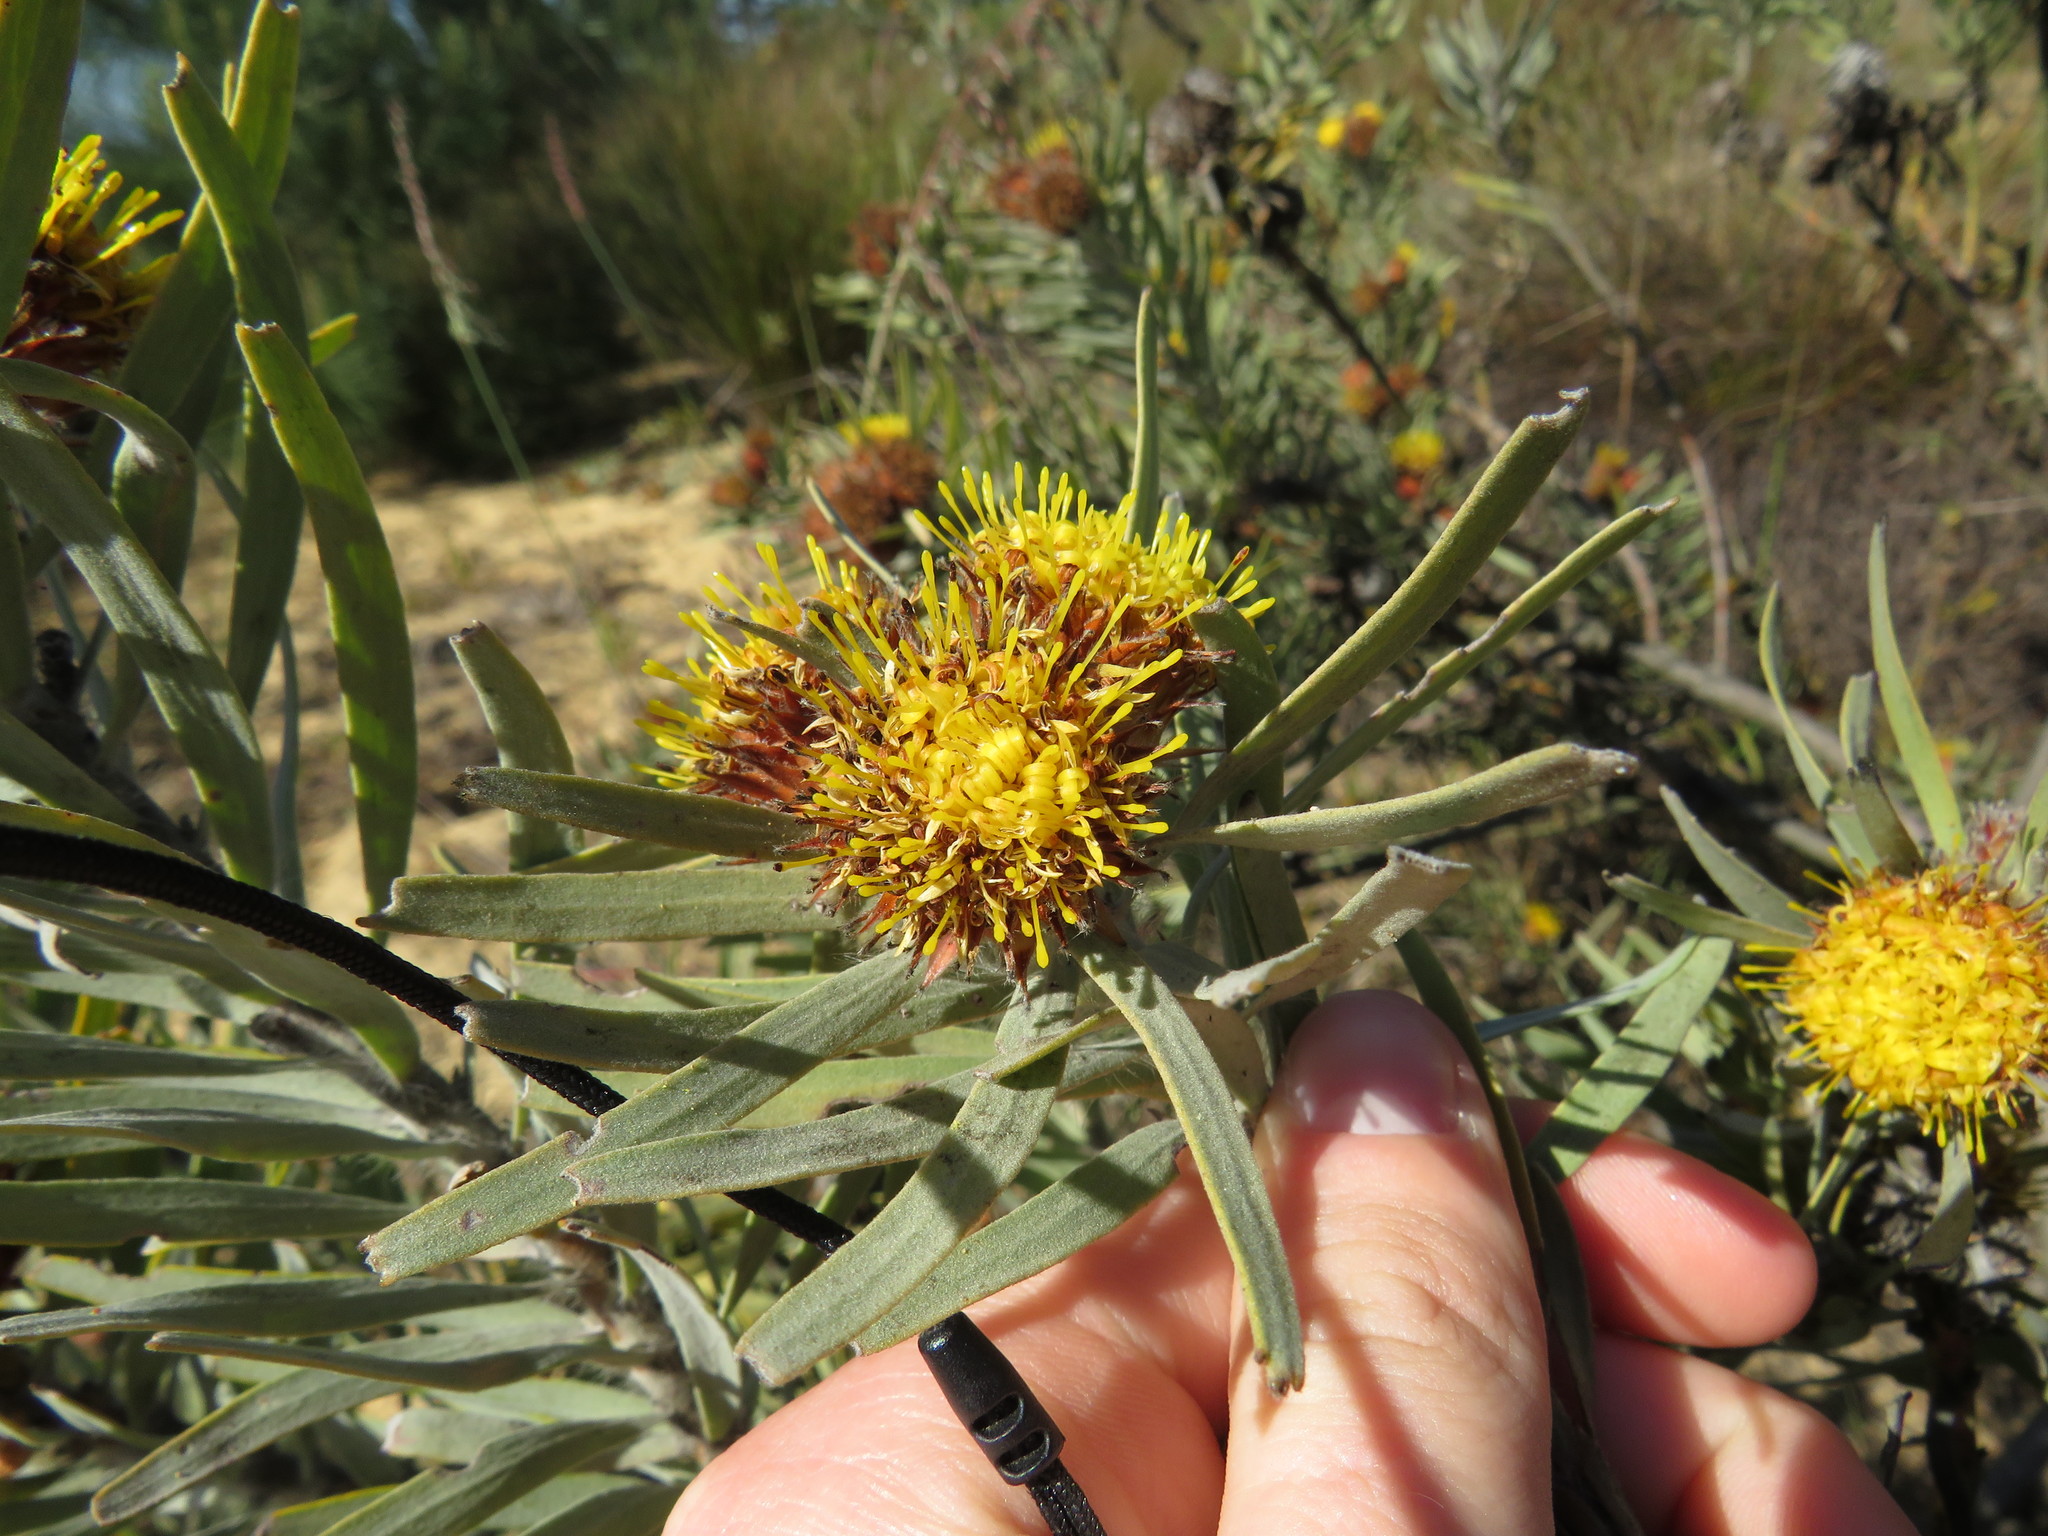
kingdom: Plantae
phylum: Tracheophyta
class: Magnoliopsida
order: Proteales
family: Proteaceae
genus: Leucospermum
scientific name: Leucospermum parile
